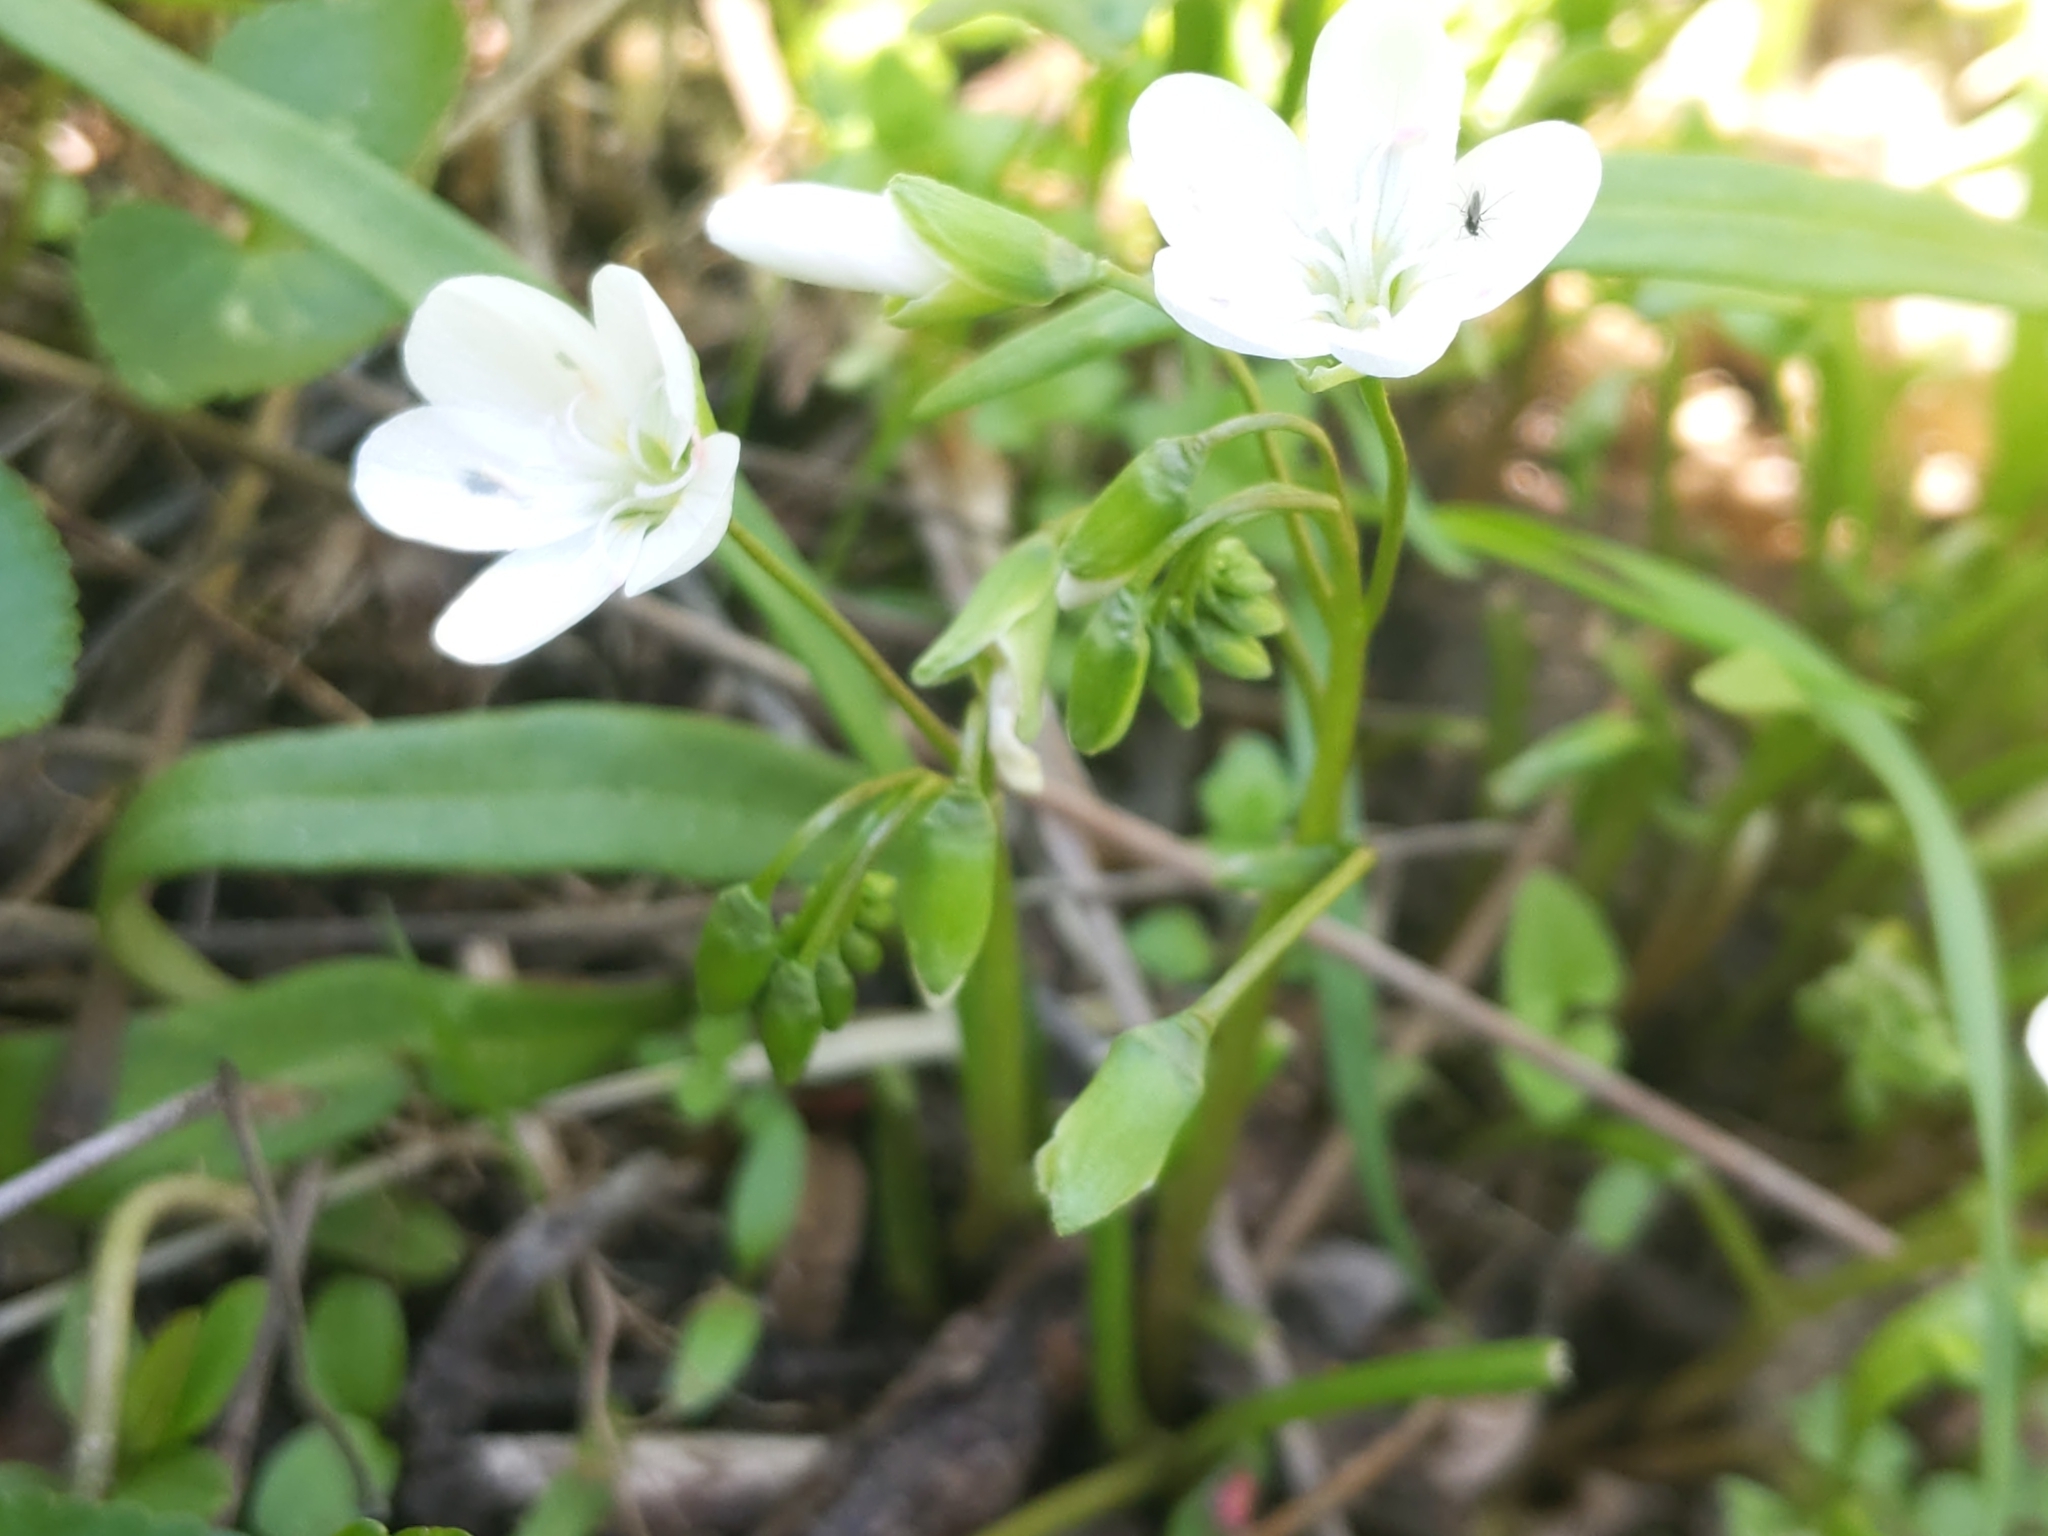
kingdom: Plantae
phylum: Tracheophyta
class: Magnoliopsida
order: Caryophyllales
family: Montiaceae
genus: Claytonia
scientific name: Claytonia virginica
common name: Virginia springbeauty
